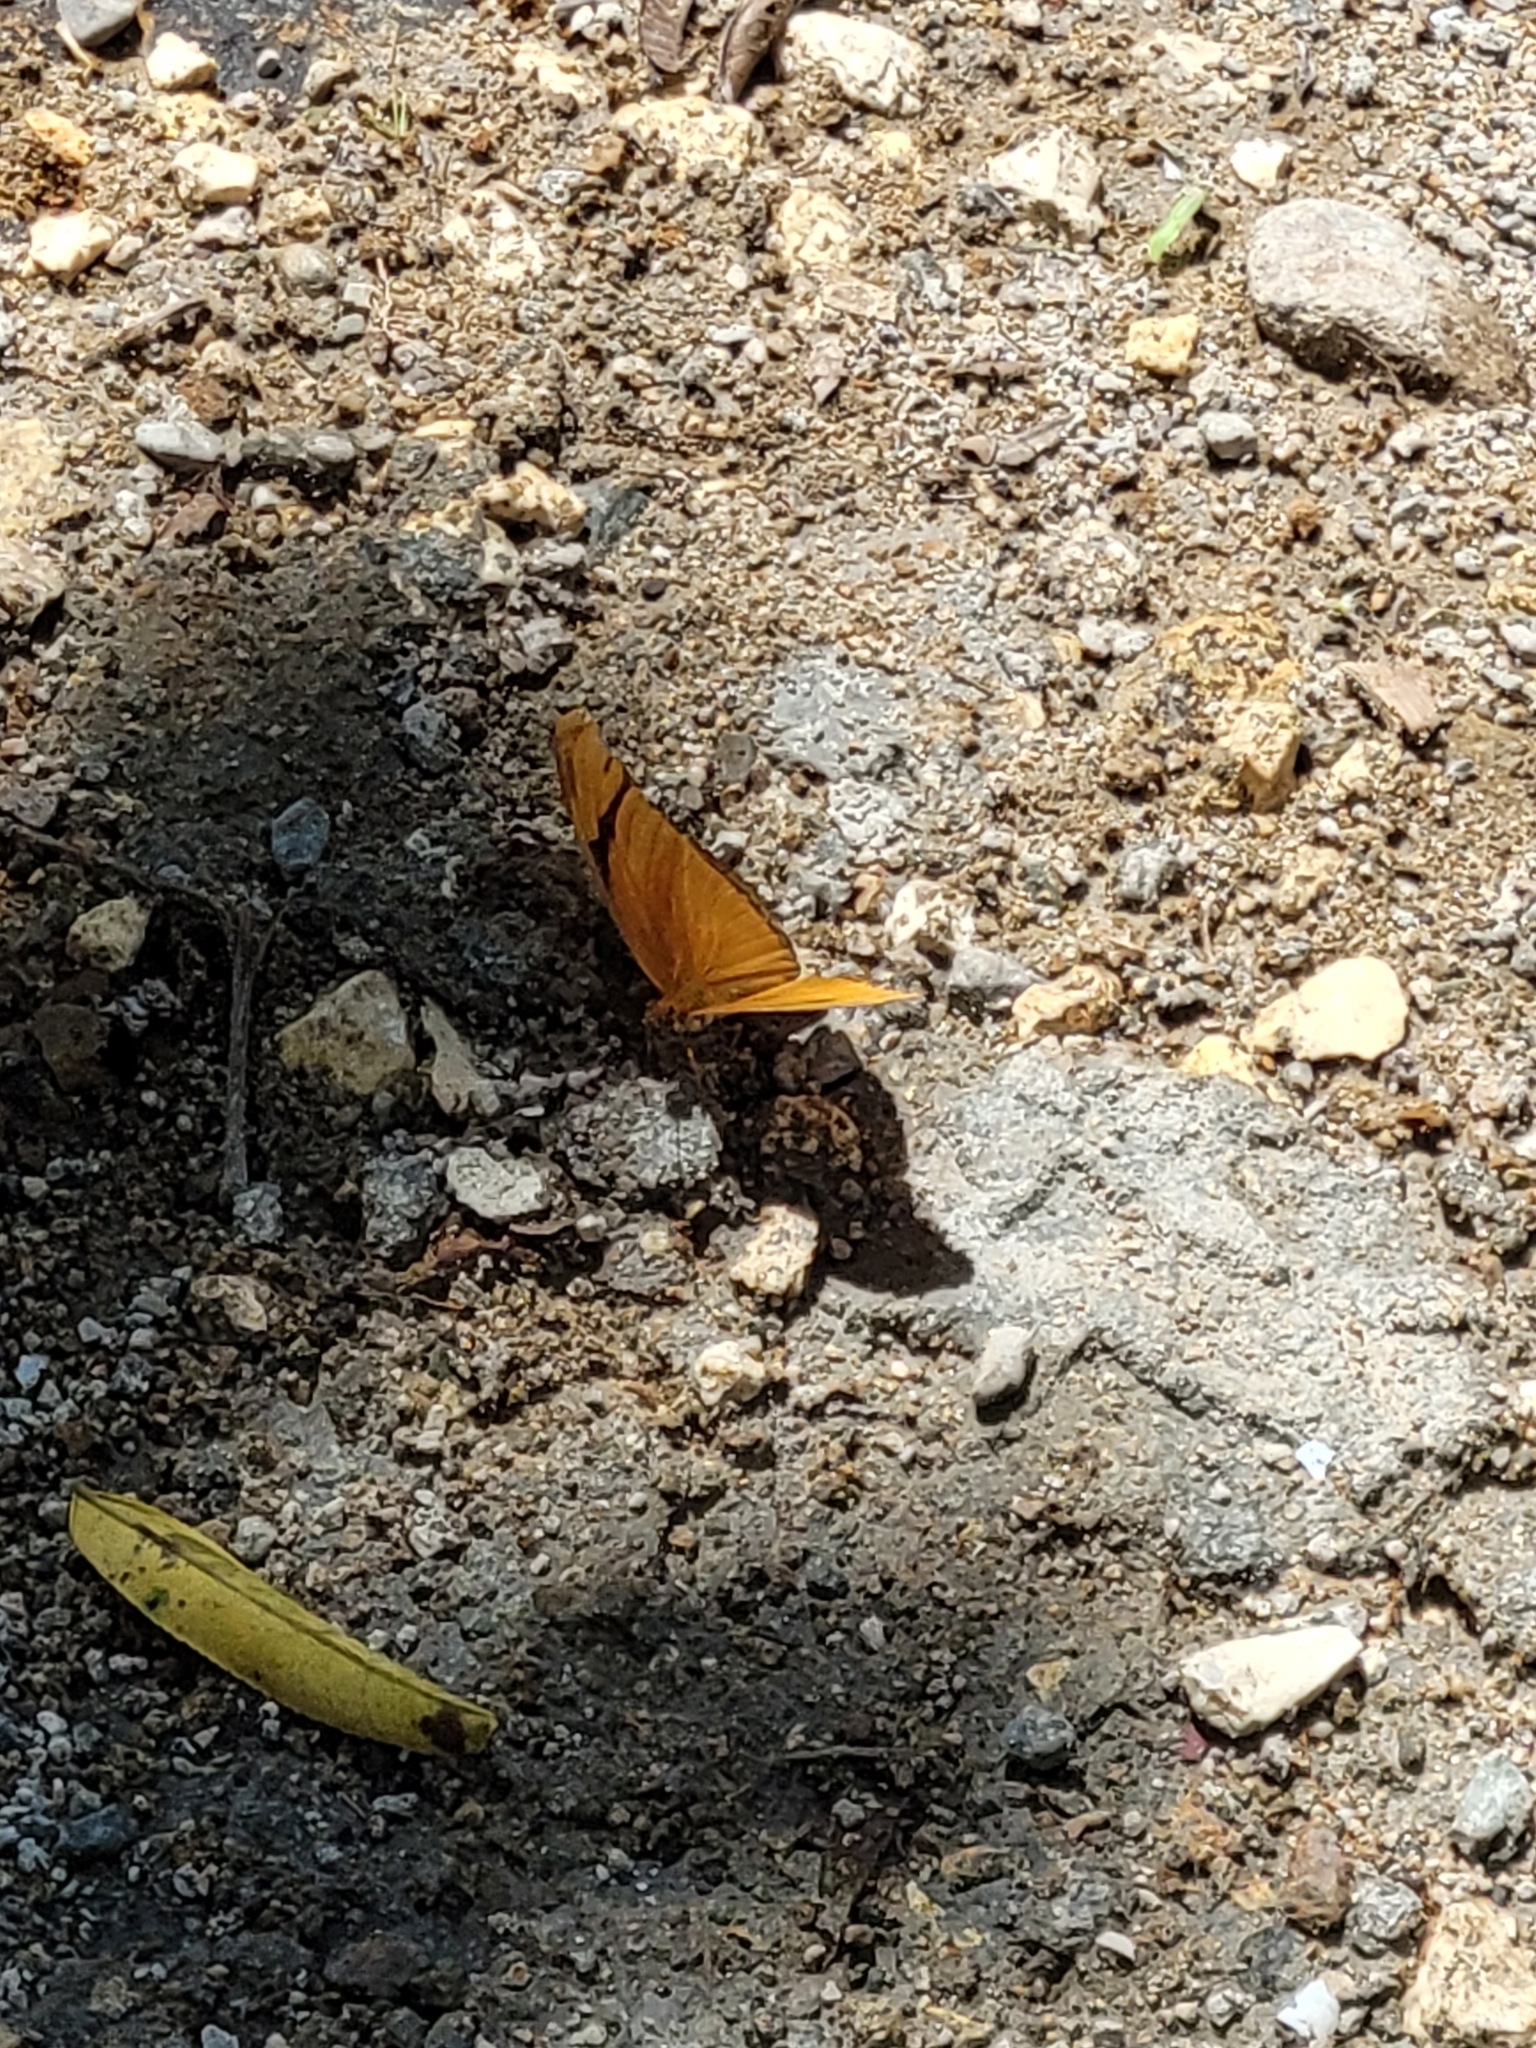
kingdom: Animalia
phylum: Arthropoda
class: Insecta
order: Lepidoptera
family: Nymphalidae
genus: Dryas
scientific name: Dryas iulia
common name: Flambeau
